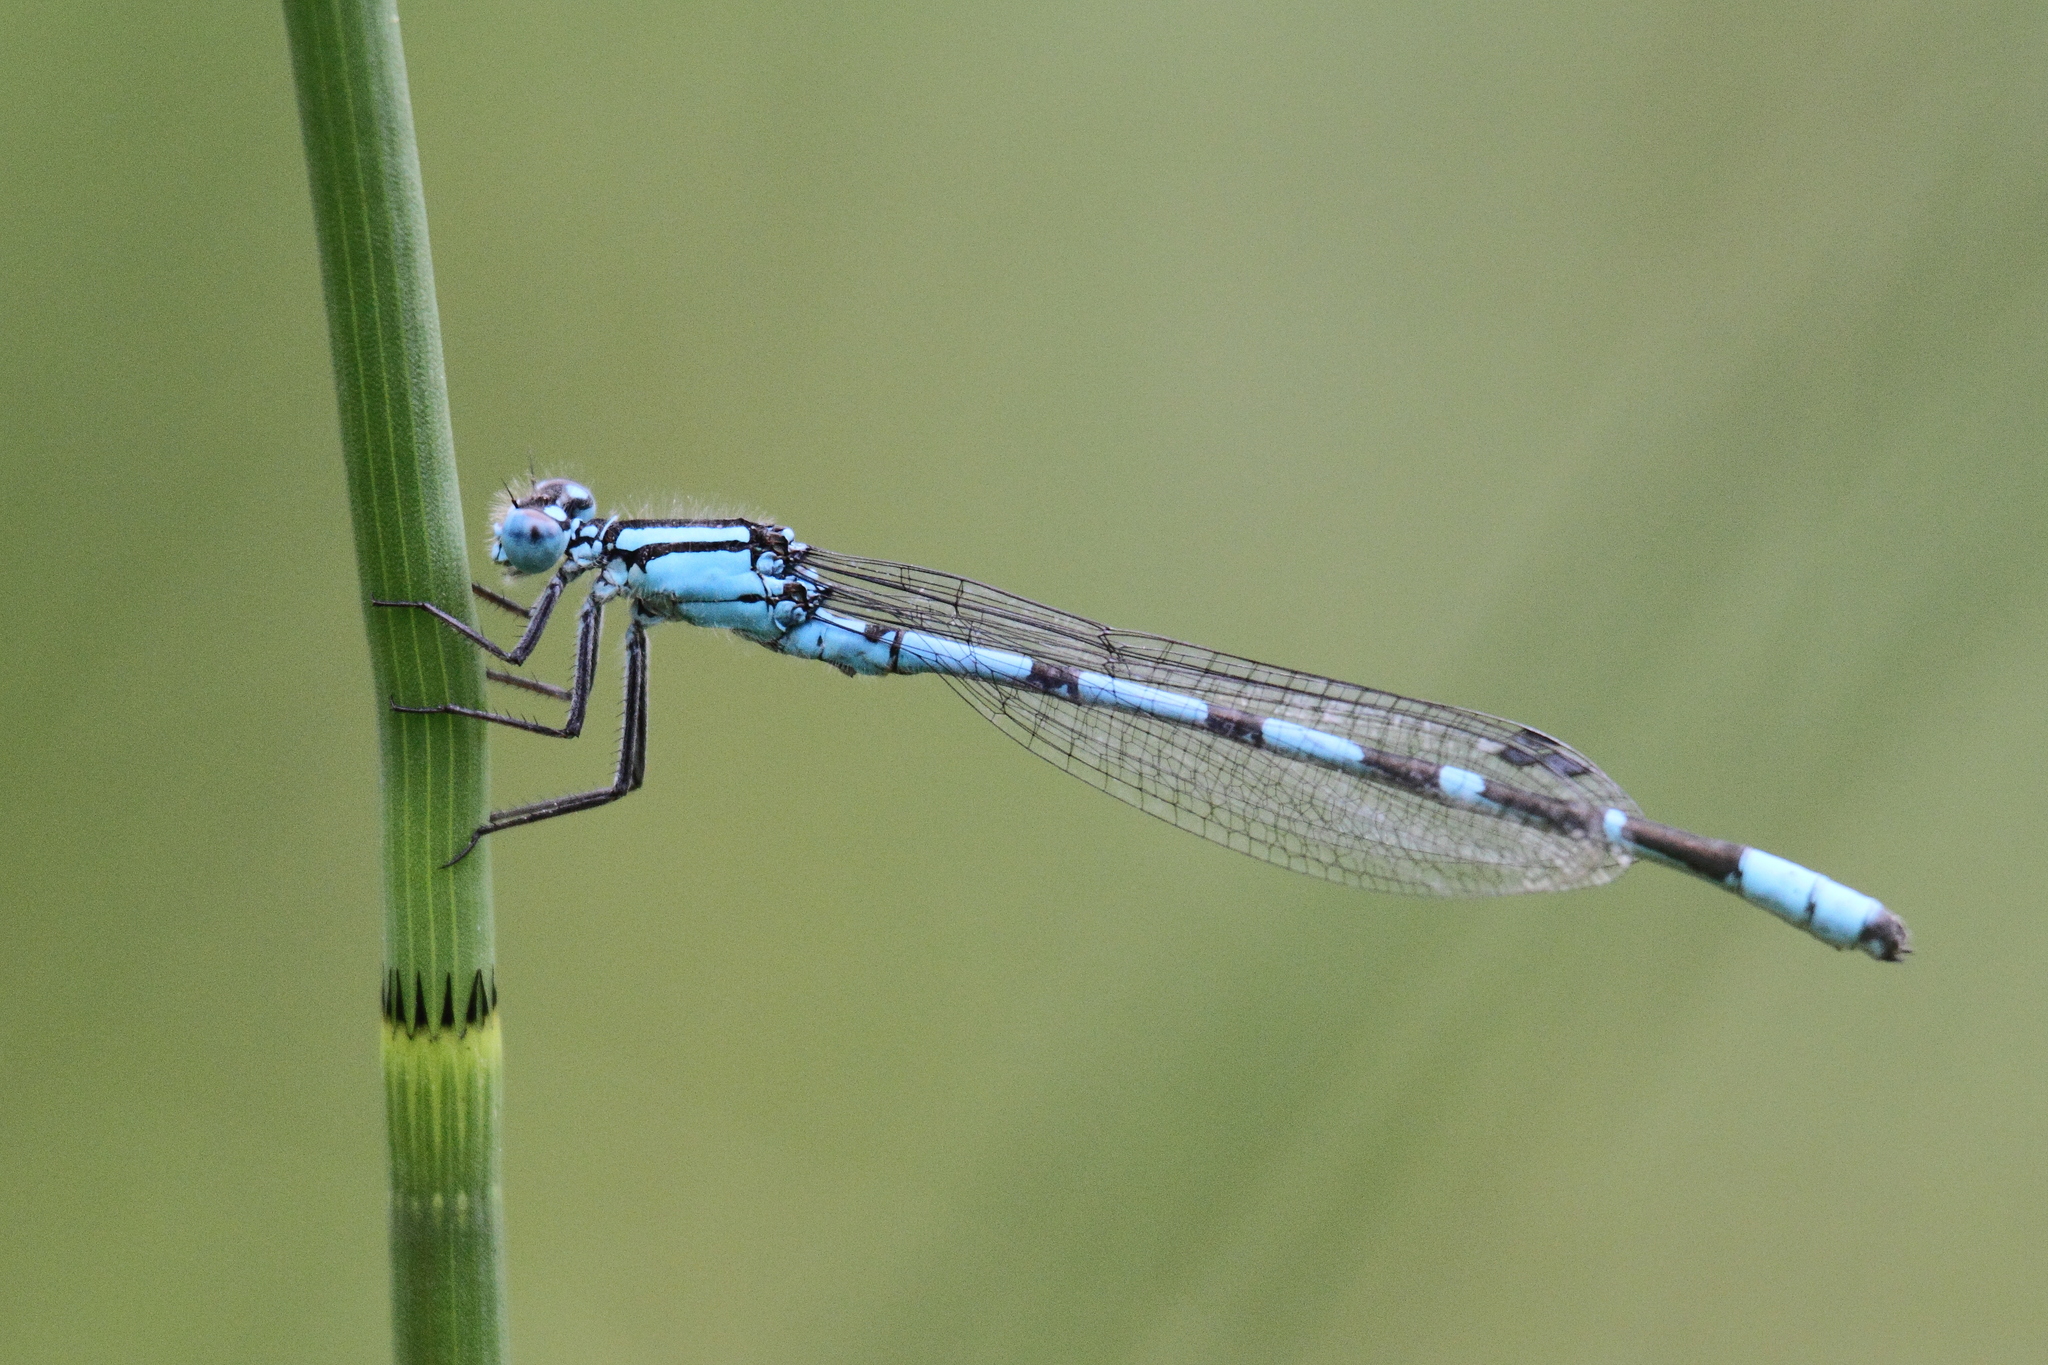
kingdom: Animalia
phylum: Arthropoda
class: Insecta
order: Odonata
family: Coenagrionidae
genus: Enallagma
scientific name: Enallagma cyathigerum
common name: Common blue damselfly
